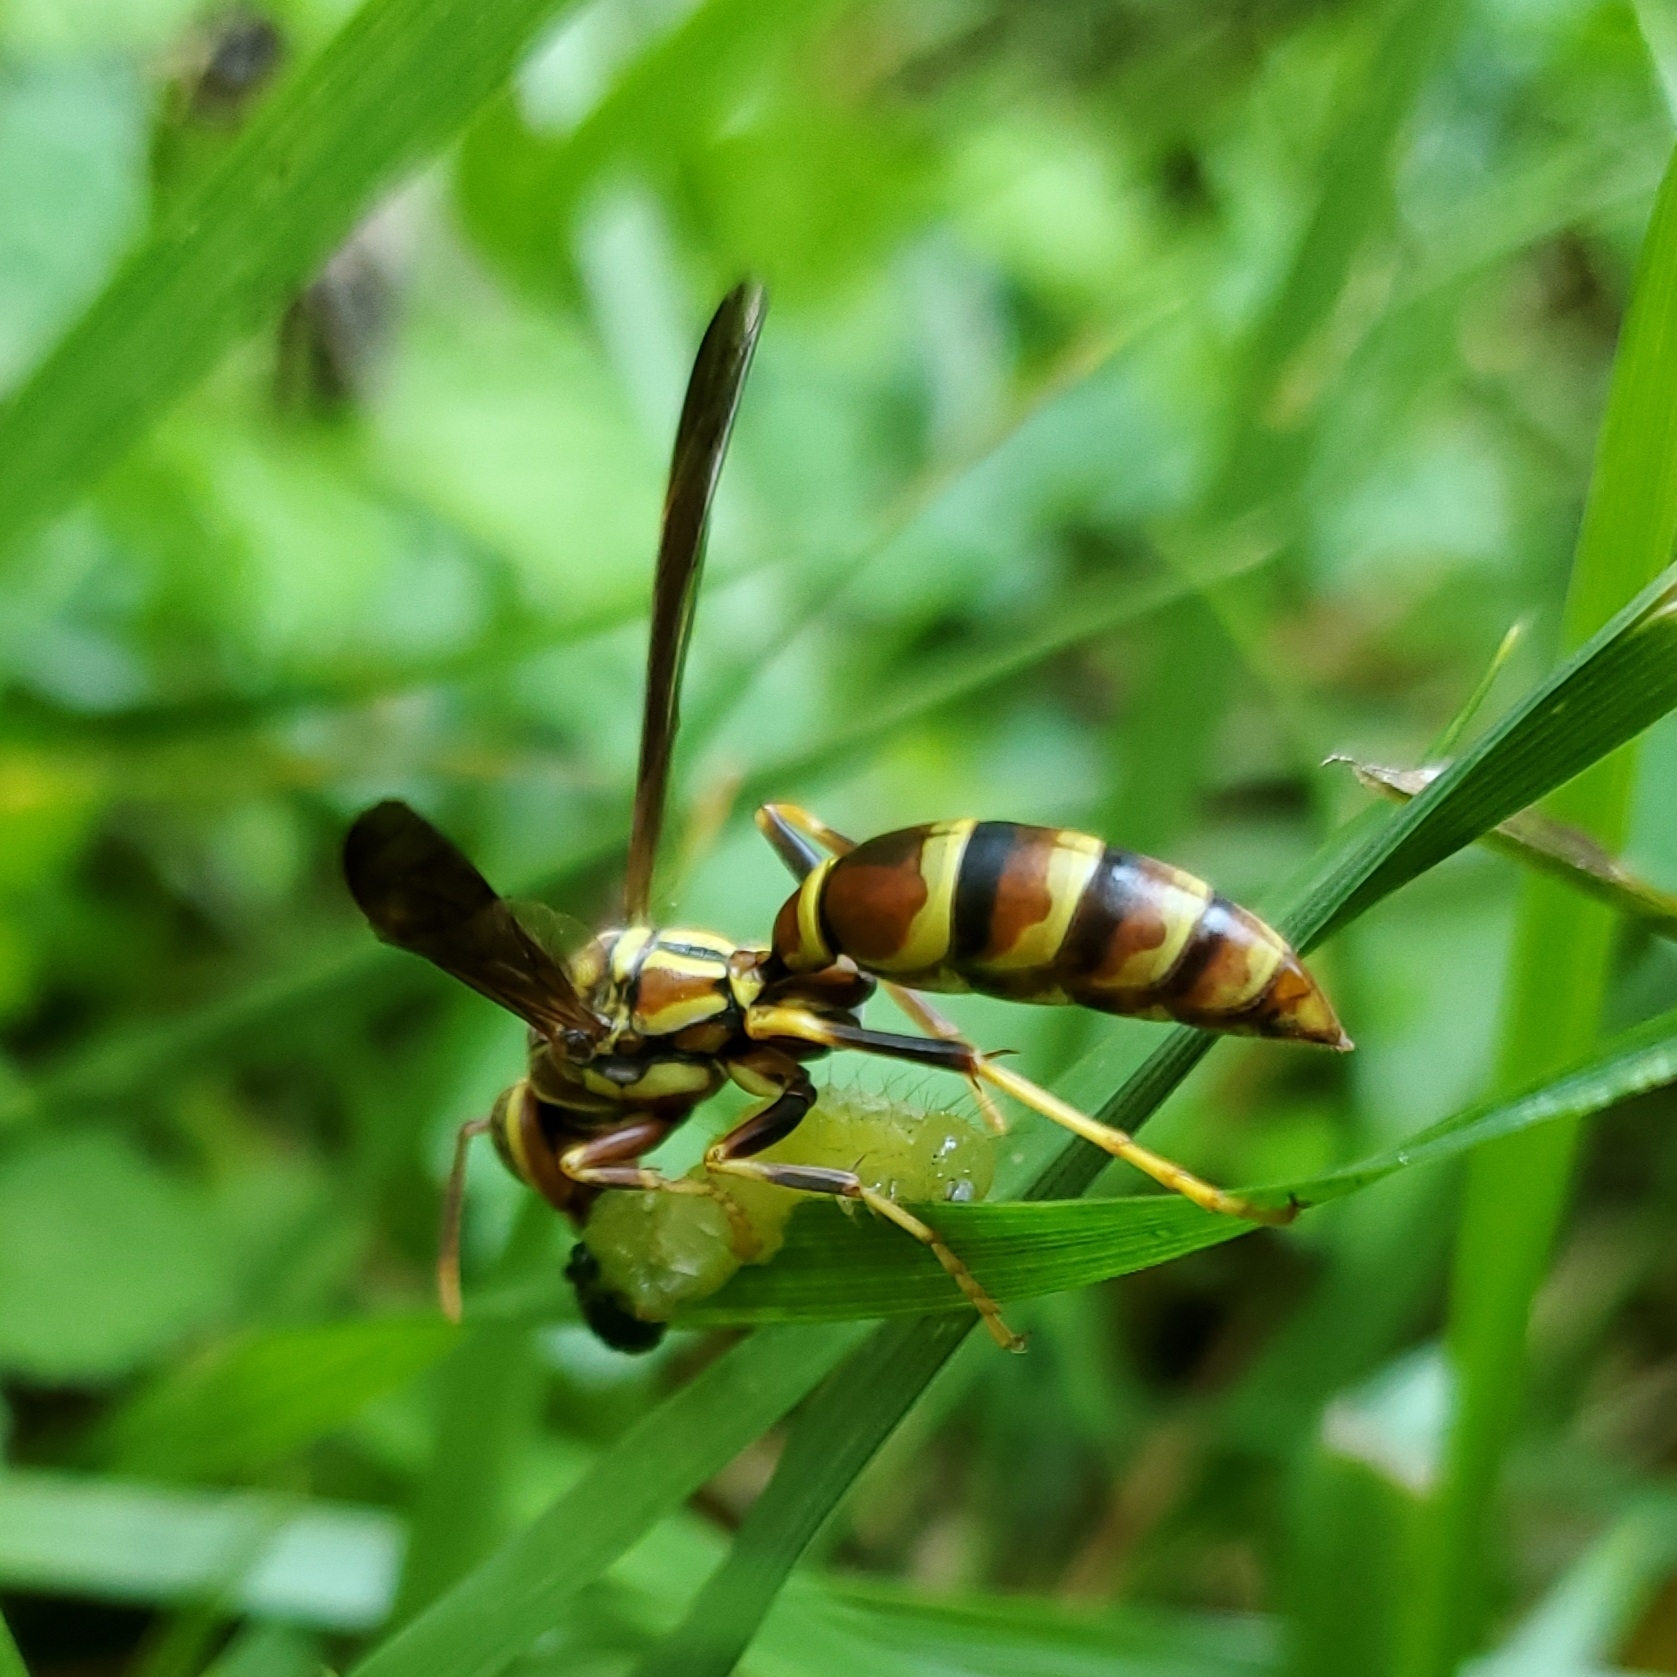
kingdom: Animalia
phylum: Arthropoda
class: Insecta
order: Hymenoptera
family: Eumenidae
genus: Polistes
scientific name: Polistes exclamans
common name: Paper wasp
